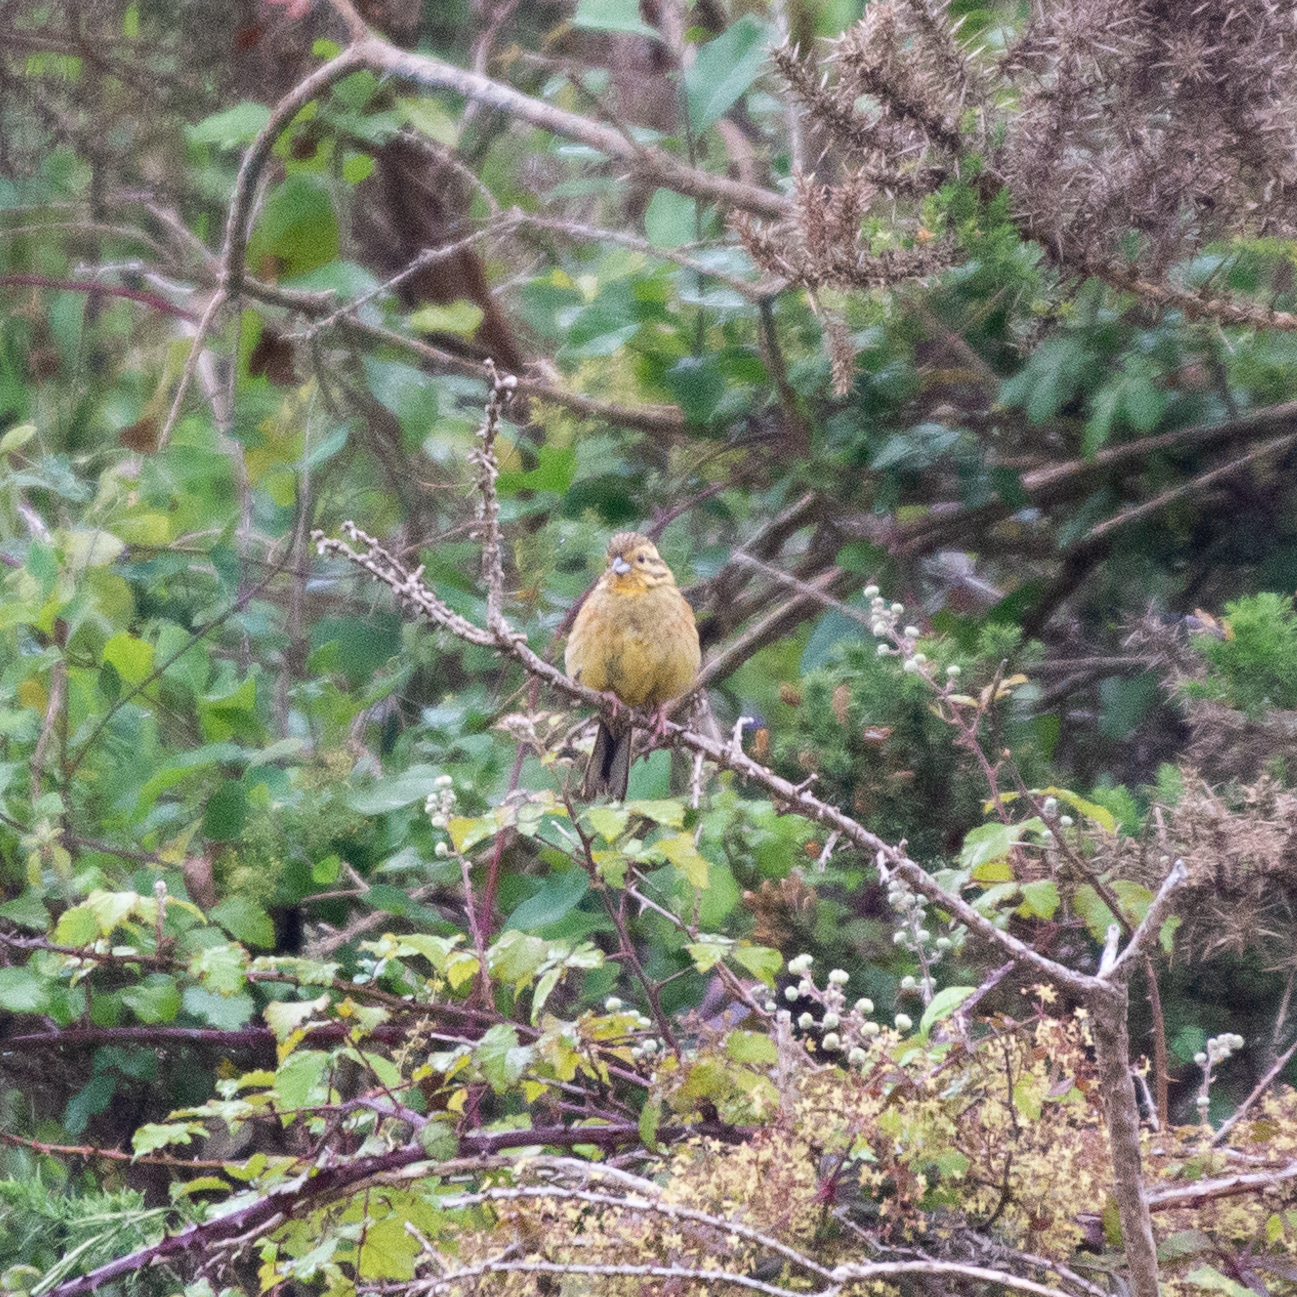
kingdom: Animalia
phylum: Chordata
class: Aves
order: Passeriformes
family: Emberizidae
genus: Emberiza
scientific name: Emberiza cirlus
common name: Cirl bunting
